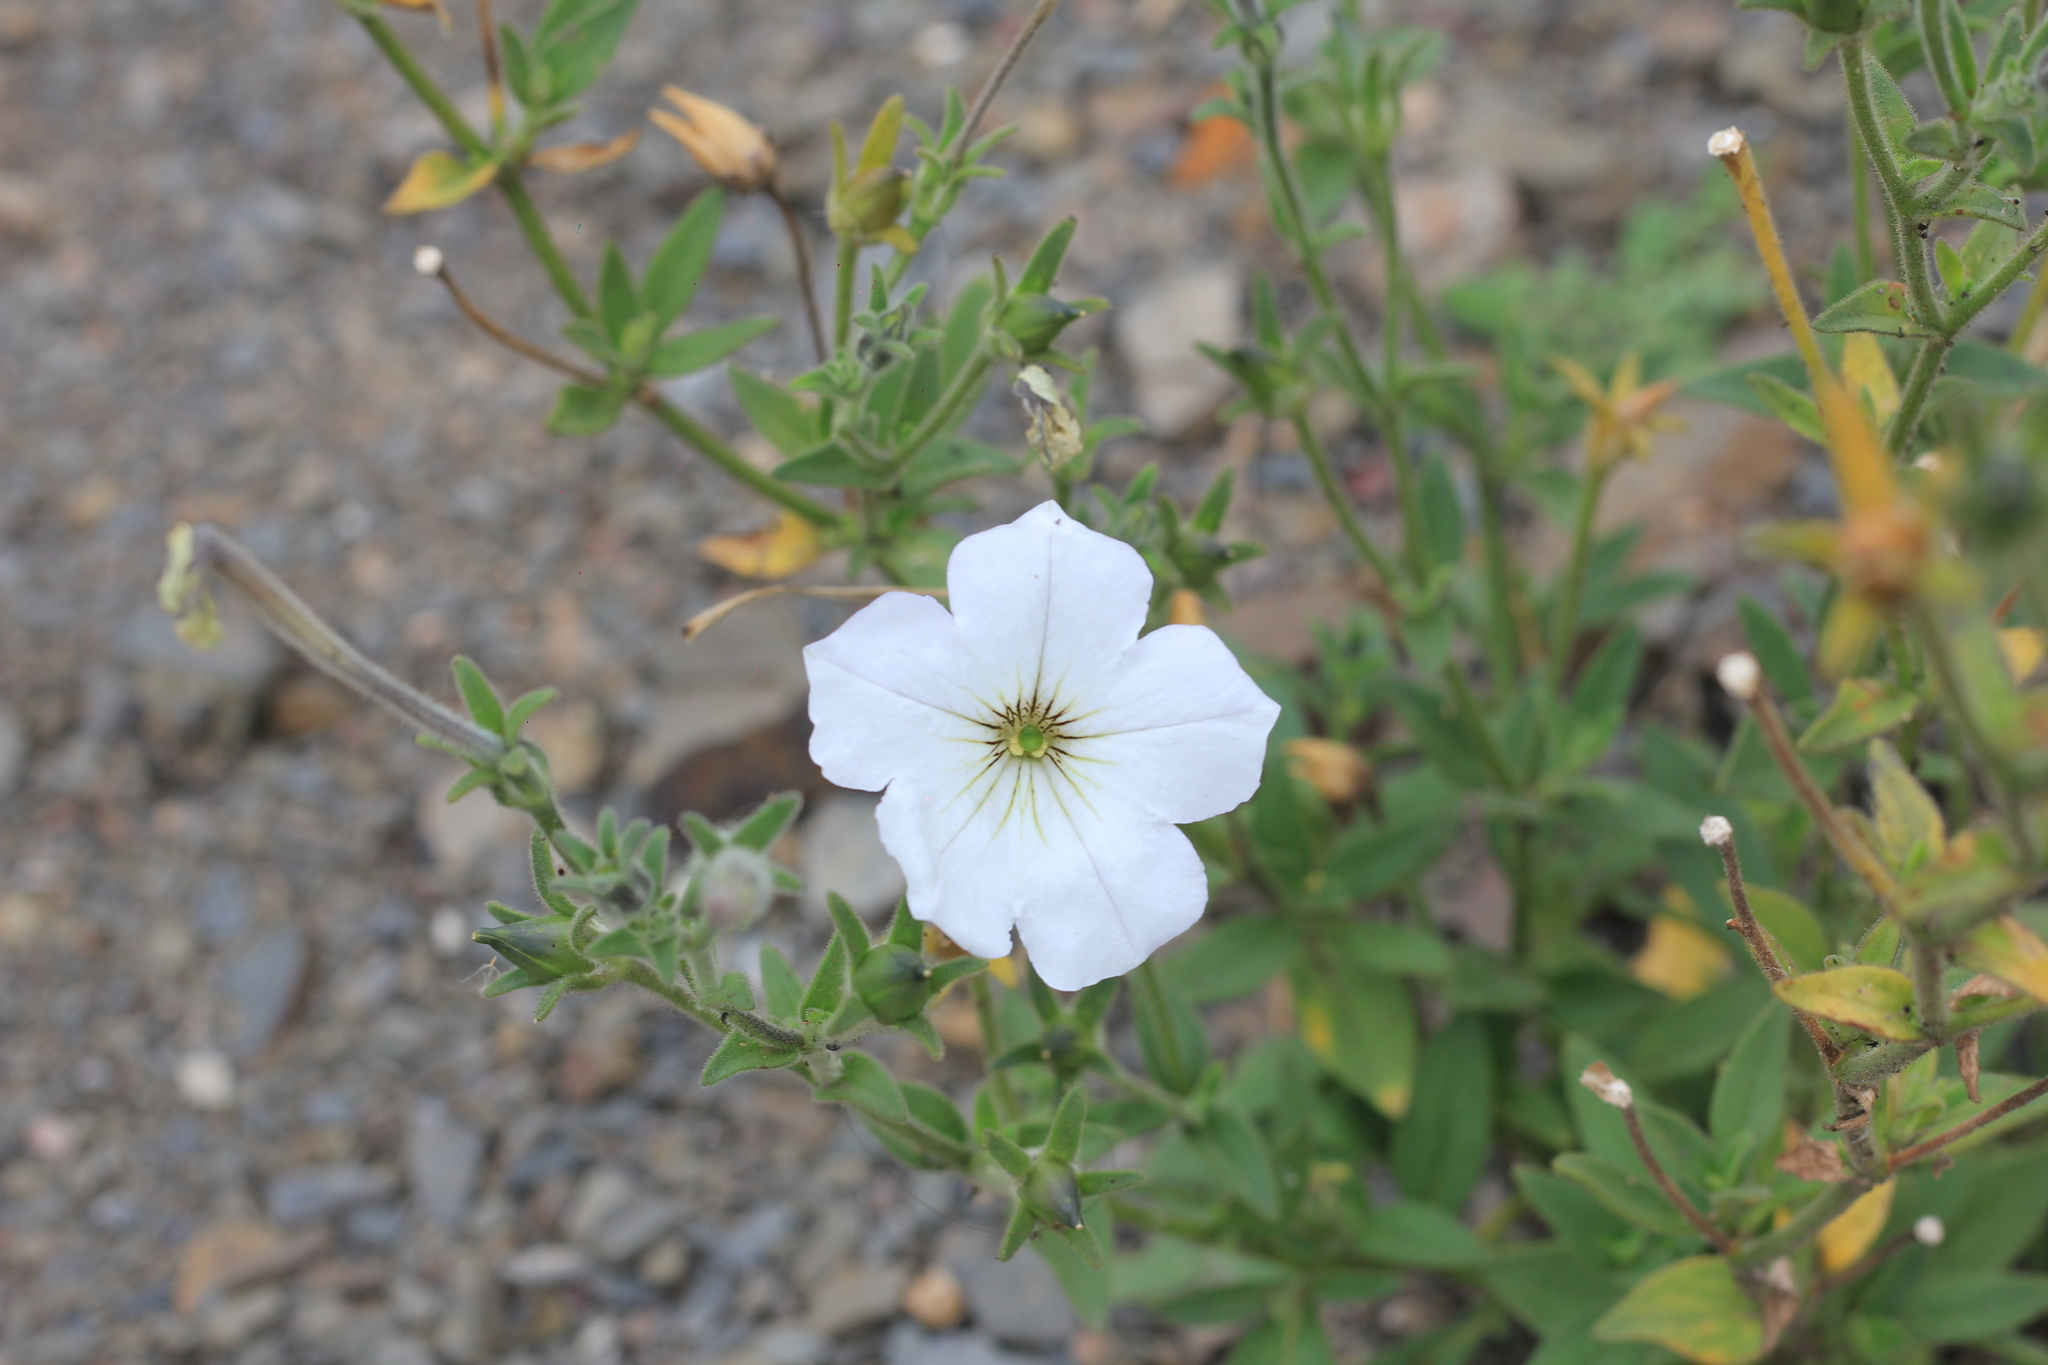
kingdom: Plantae
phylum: Tracheophyta
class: Magnoliopsida
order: Solanales
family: Solanaceae
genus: Petunia
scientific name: Petunia axillaris
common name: Large white petunia
